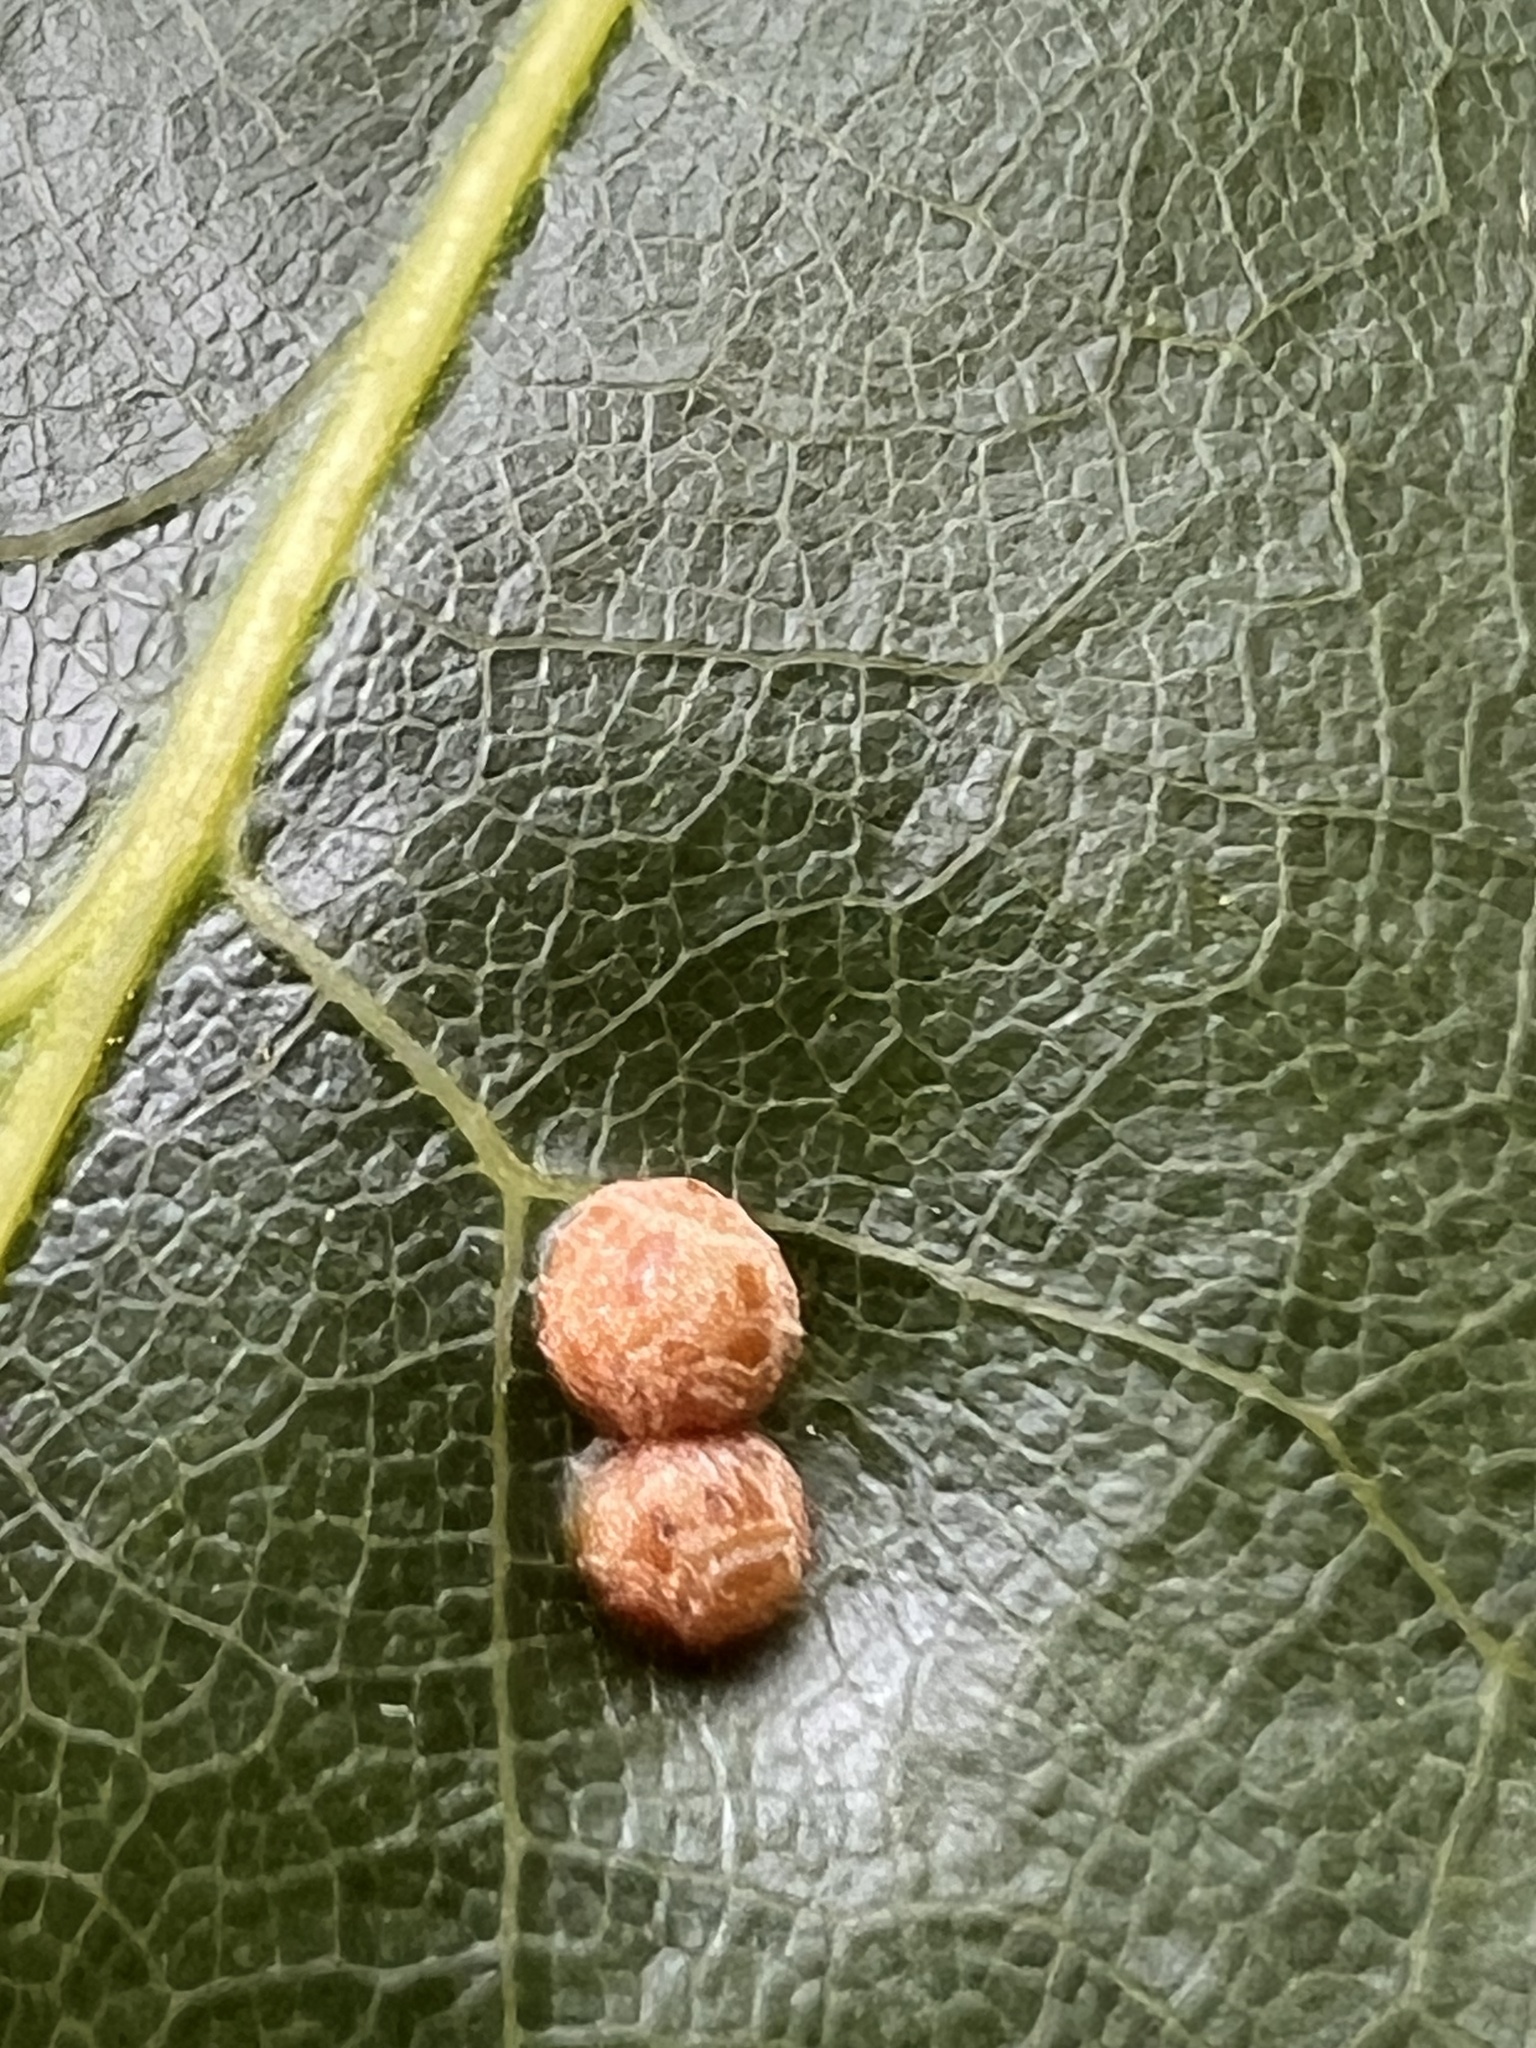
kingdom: Animalia
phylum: Arthropoda
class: Insecta
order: Diptera
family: Cecidomyiidae
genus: Polystepha
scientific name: Polystepha pilulae
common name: Oak leaf gall midge
